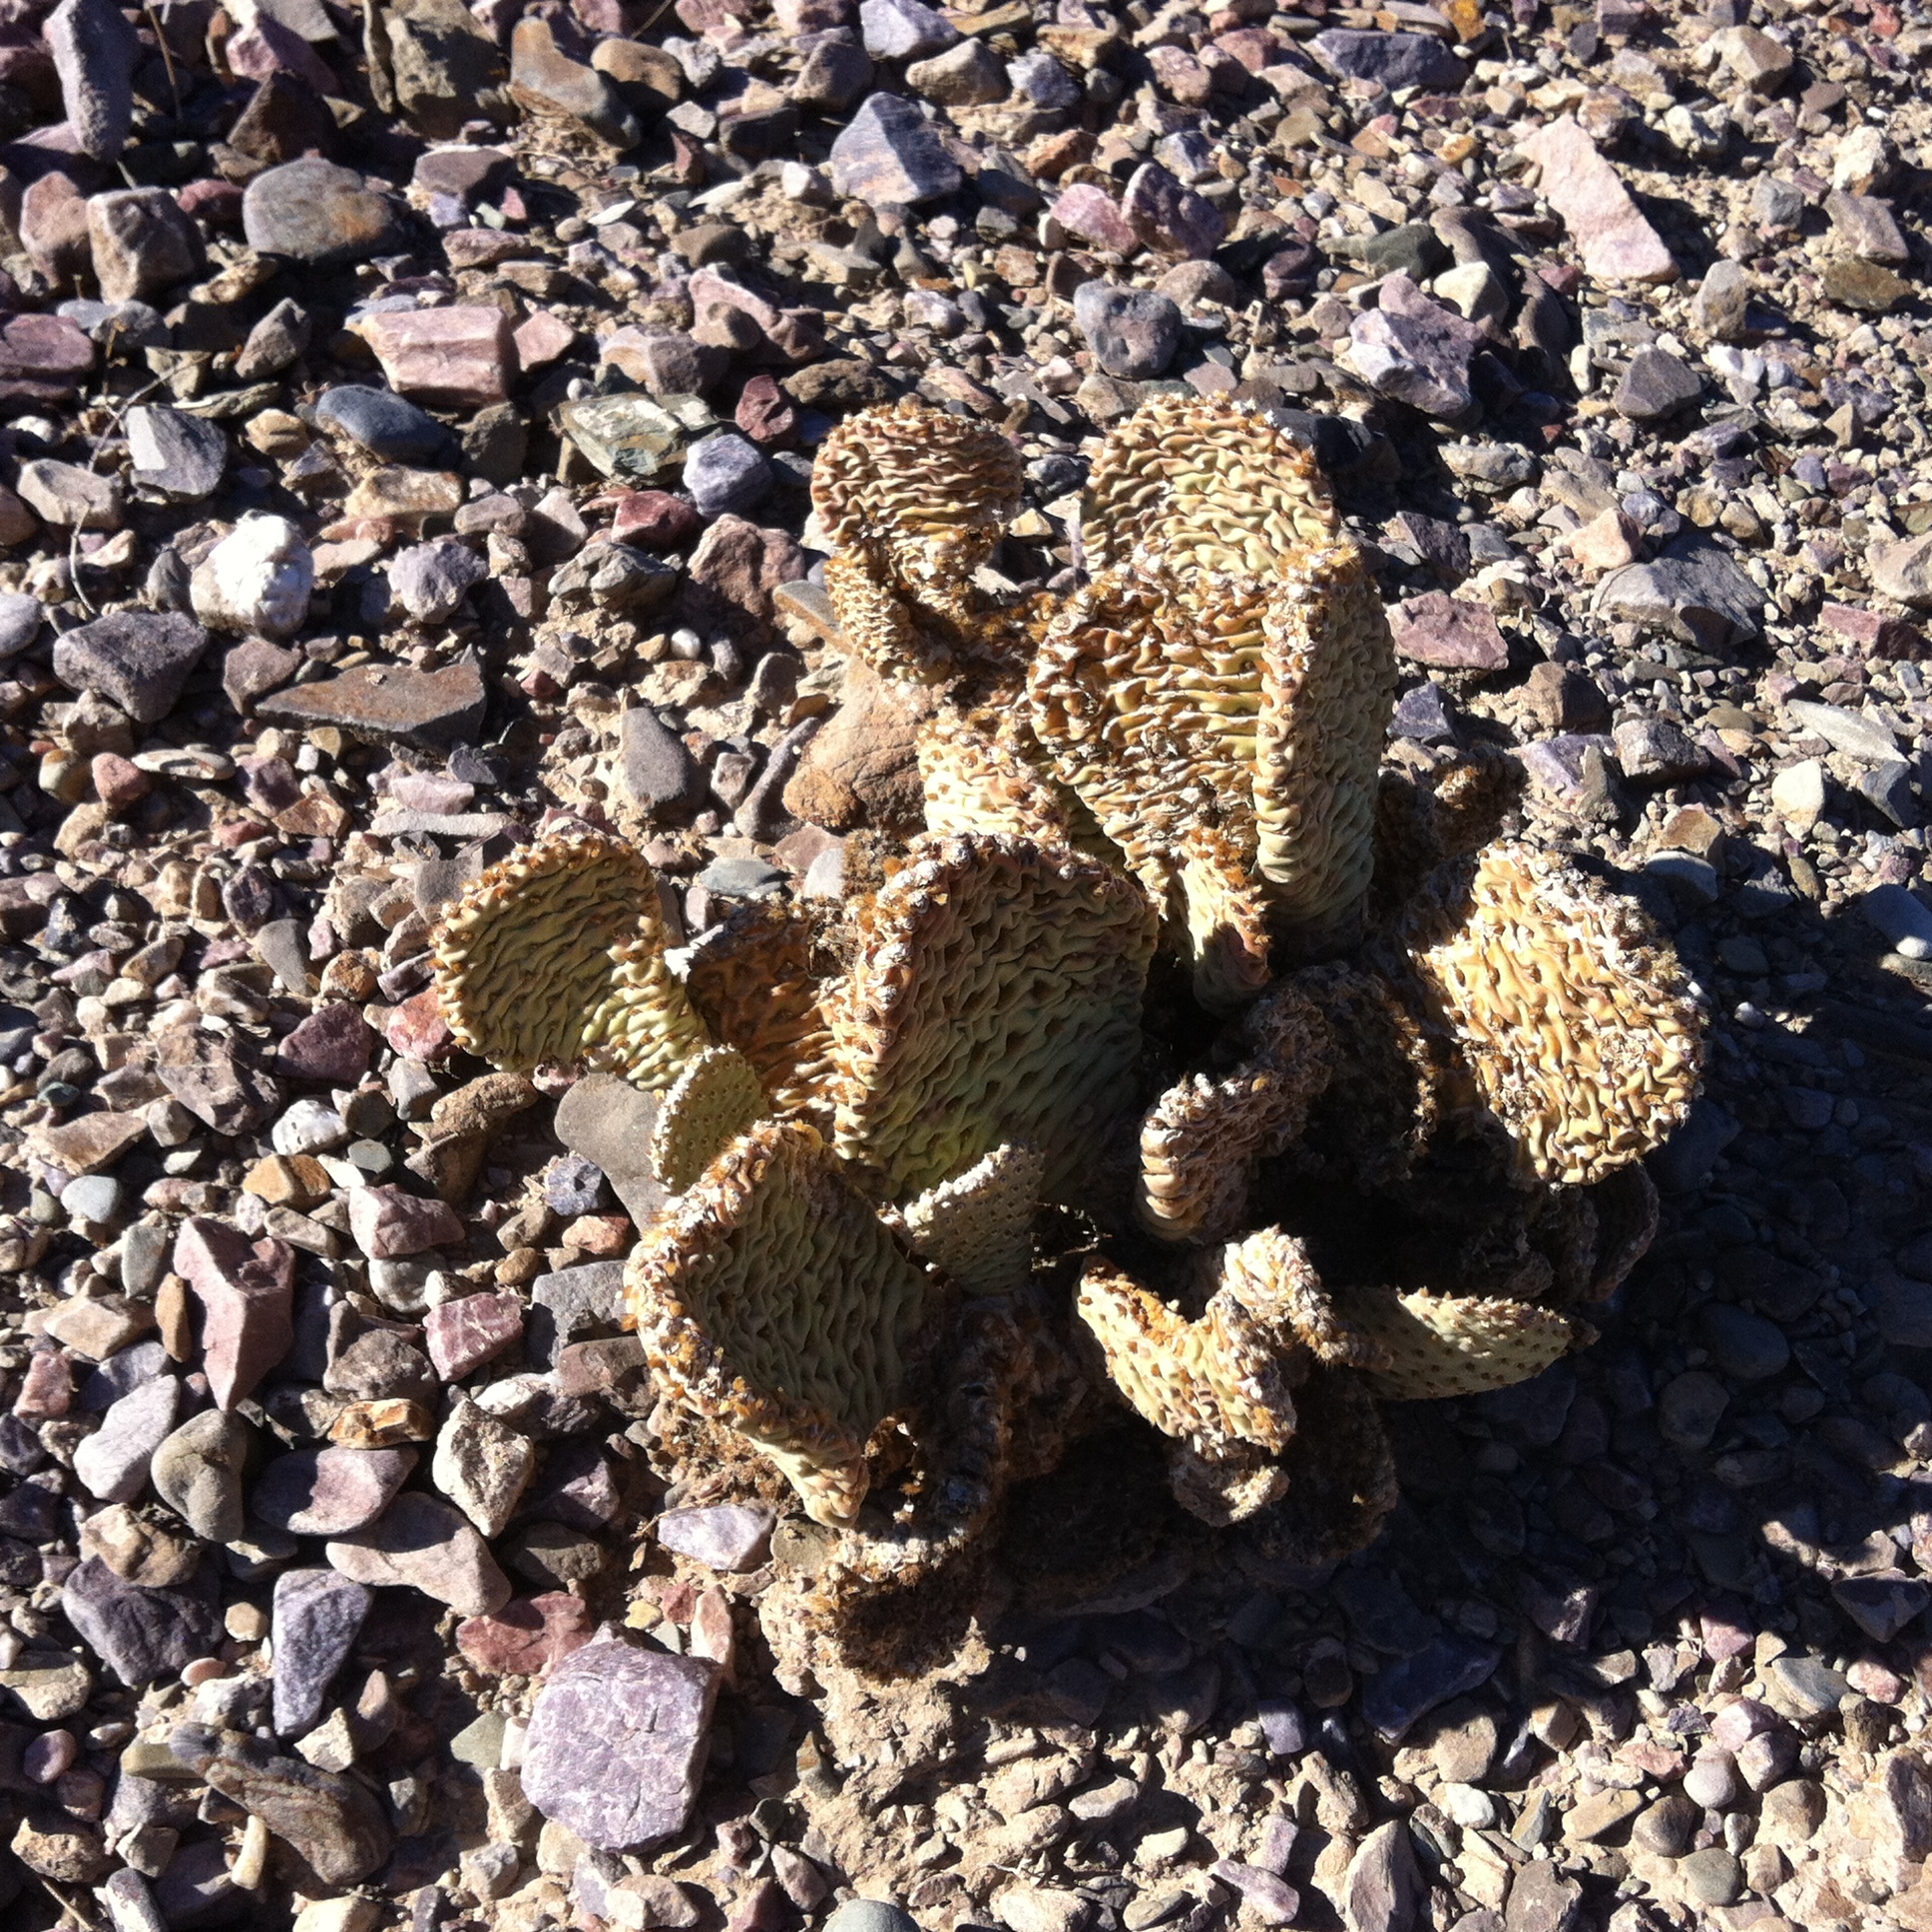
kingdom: Plantae
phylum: Tracheophyta
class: Magnoliopsida
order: Caryophyllales
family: Cactaceae
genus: Opuntia
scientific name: Opuntia basilaris
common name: Beavertail prickly-pear
